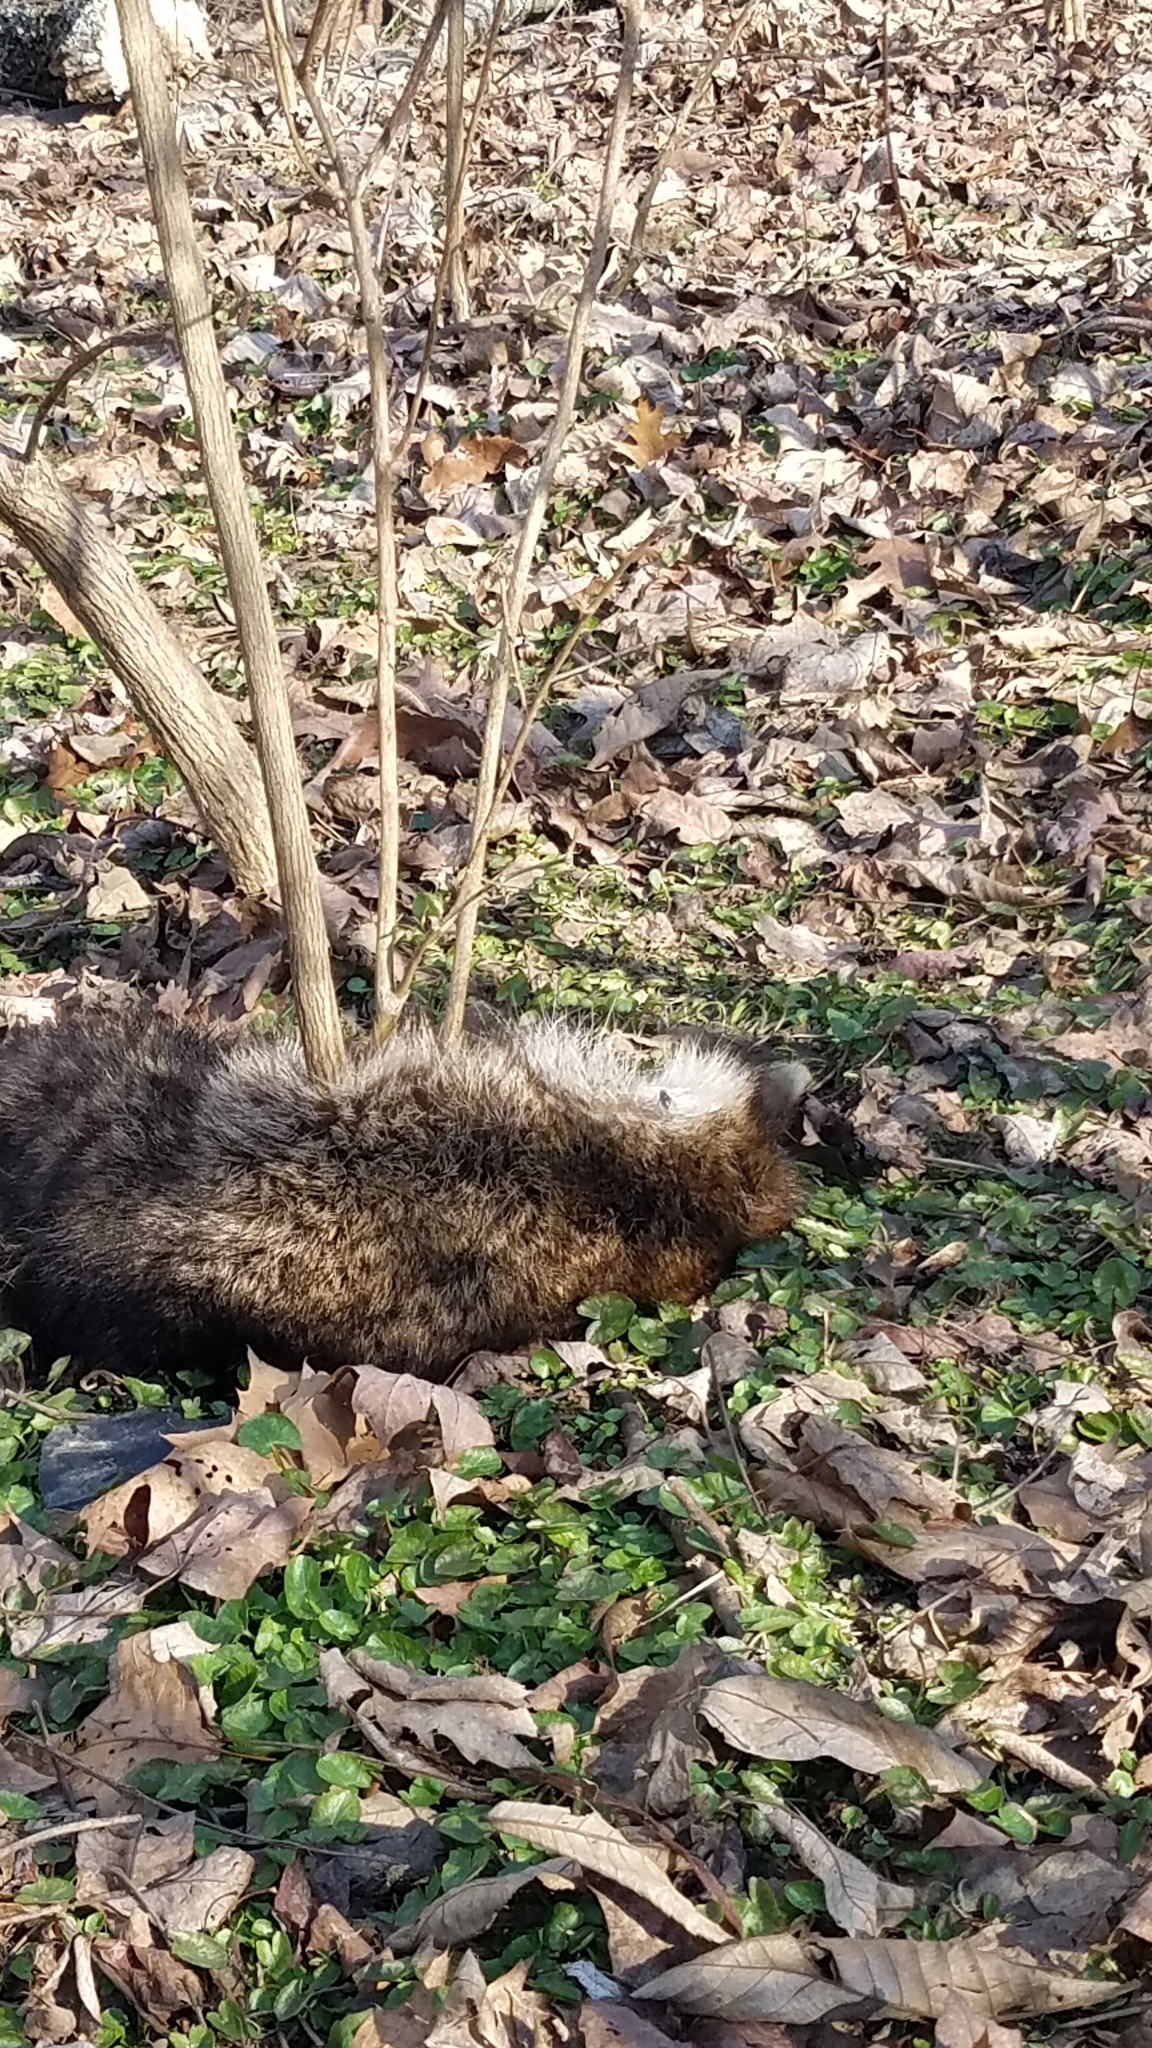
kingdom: Animalia
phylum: Chordata
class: Mammalia
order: Carnivora
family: Procyonidae
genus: Procyon
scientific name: Procyon lotor
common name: Raccoon
